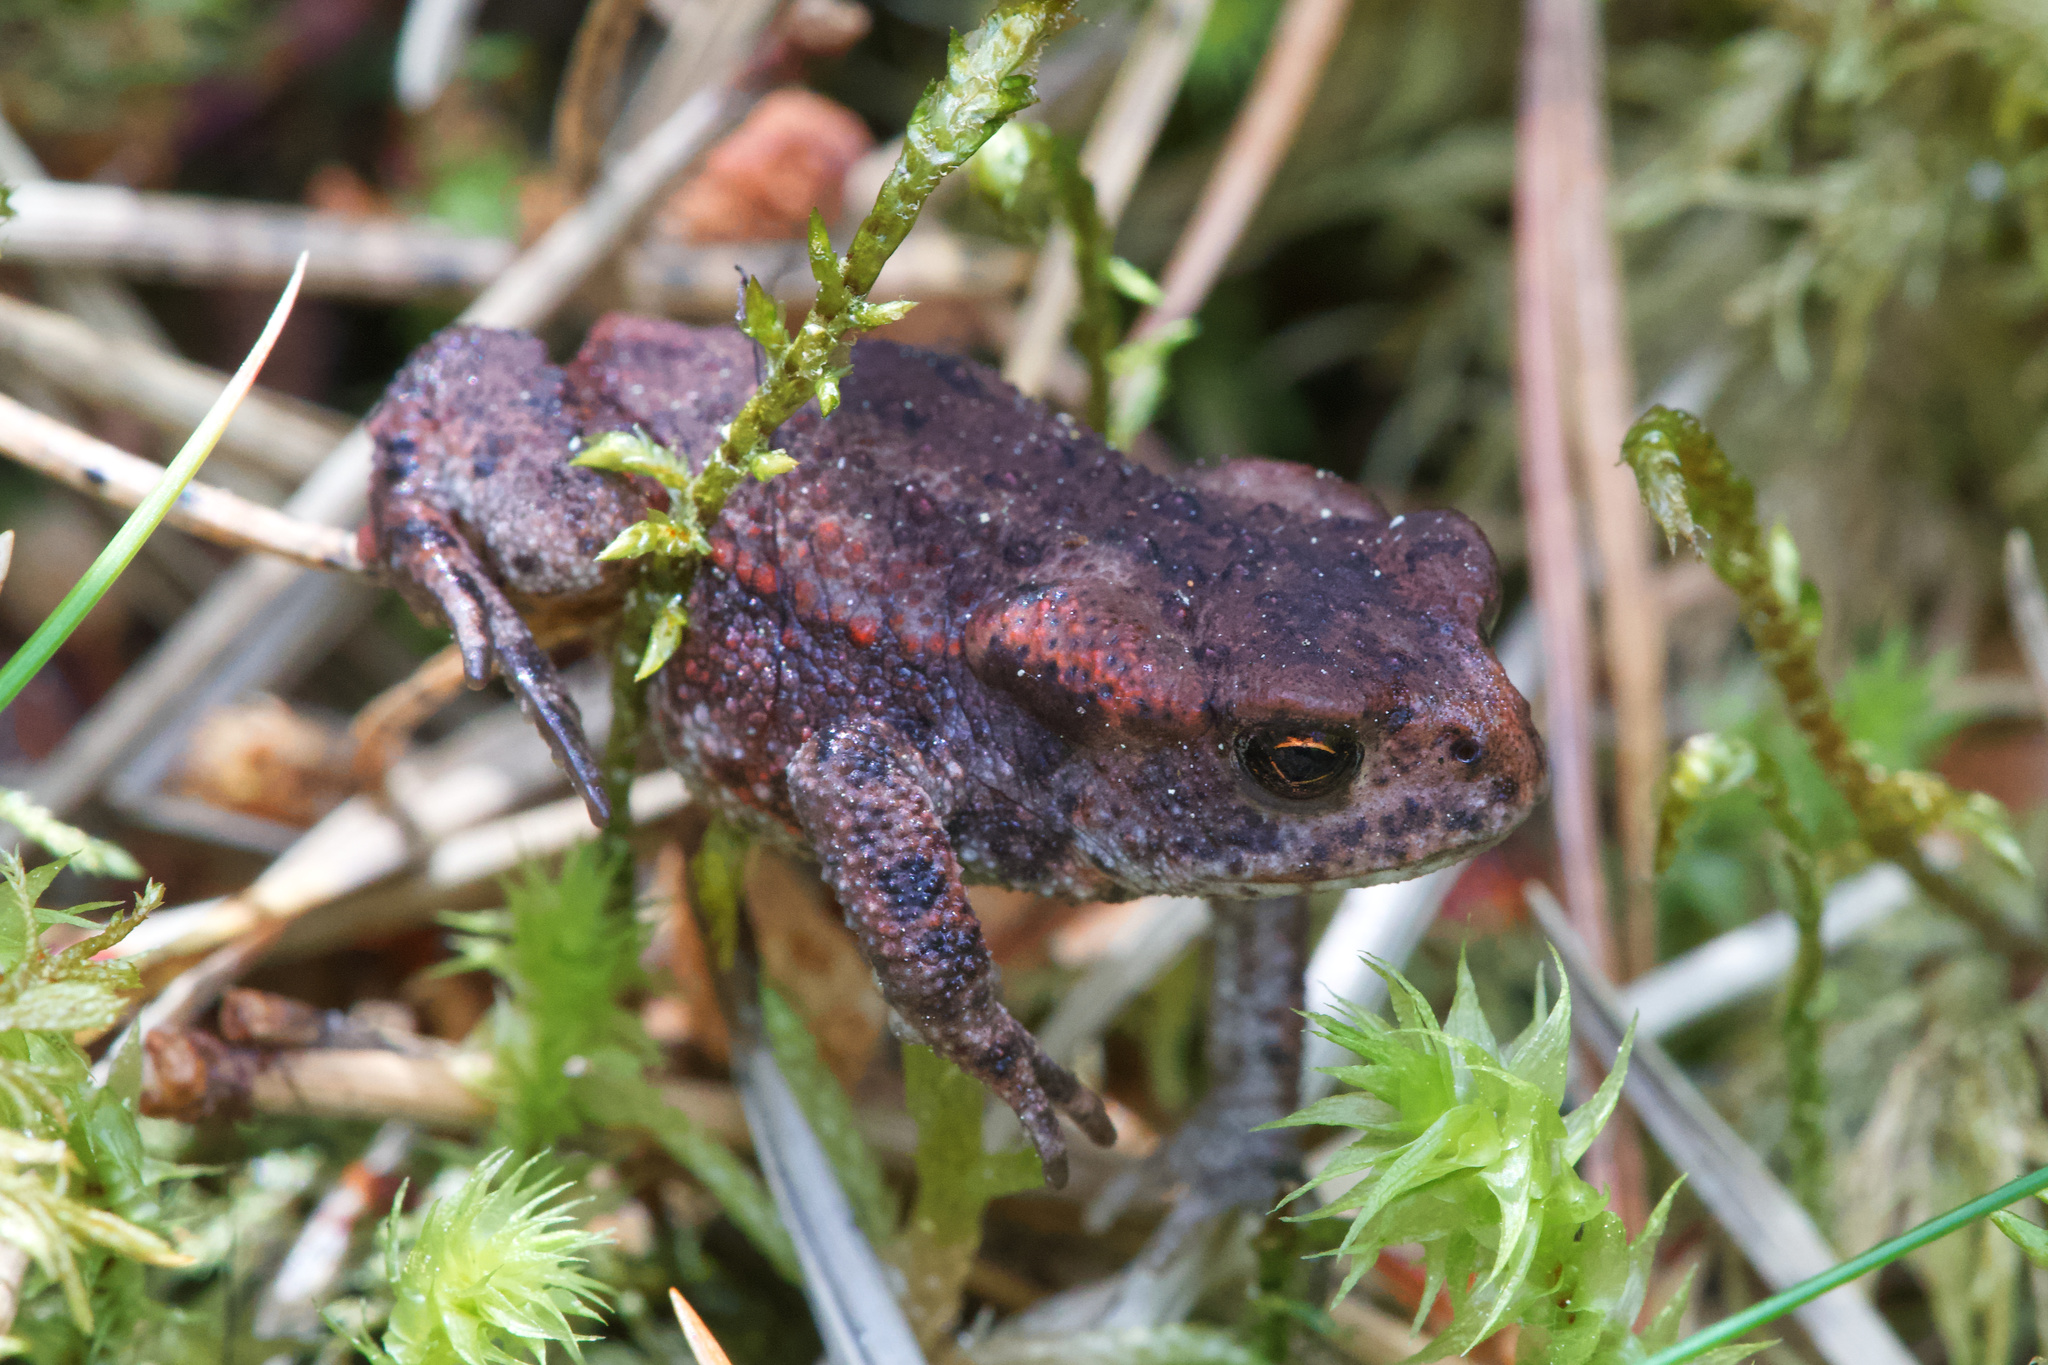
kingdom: Animalia
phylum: Chordata
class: Amphibia
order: Anura
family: Bufonidae
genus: Bufo
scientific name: Bufo bufo
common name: Common toad
